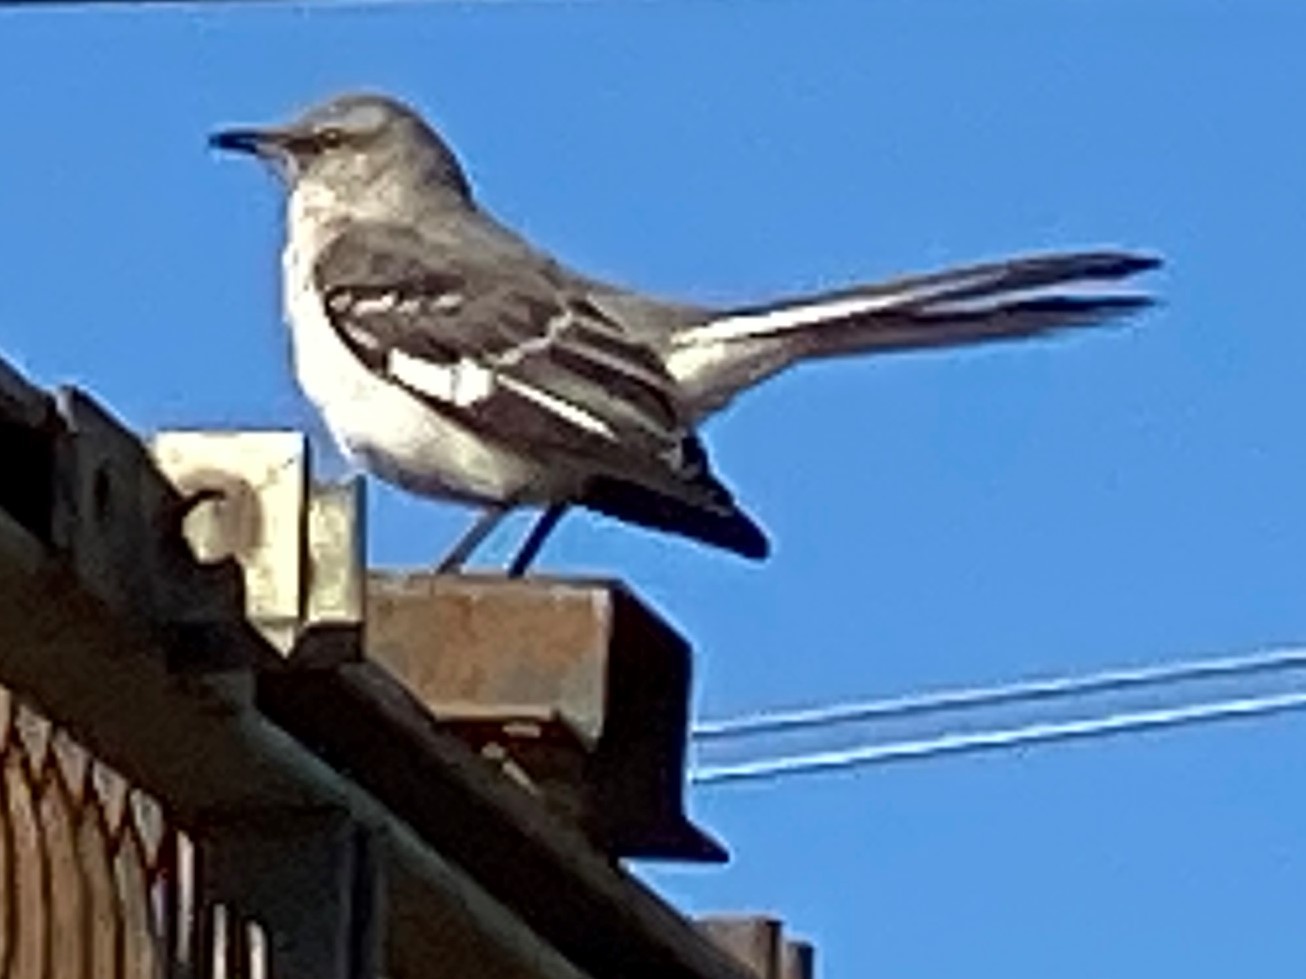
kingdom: Animalia
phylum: Chordata
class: Aves
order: Passeriformes
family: Mimidae
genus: Mimus
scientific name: Mimus polyglottos
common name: Northern mockingbird
